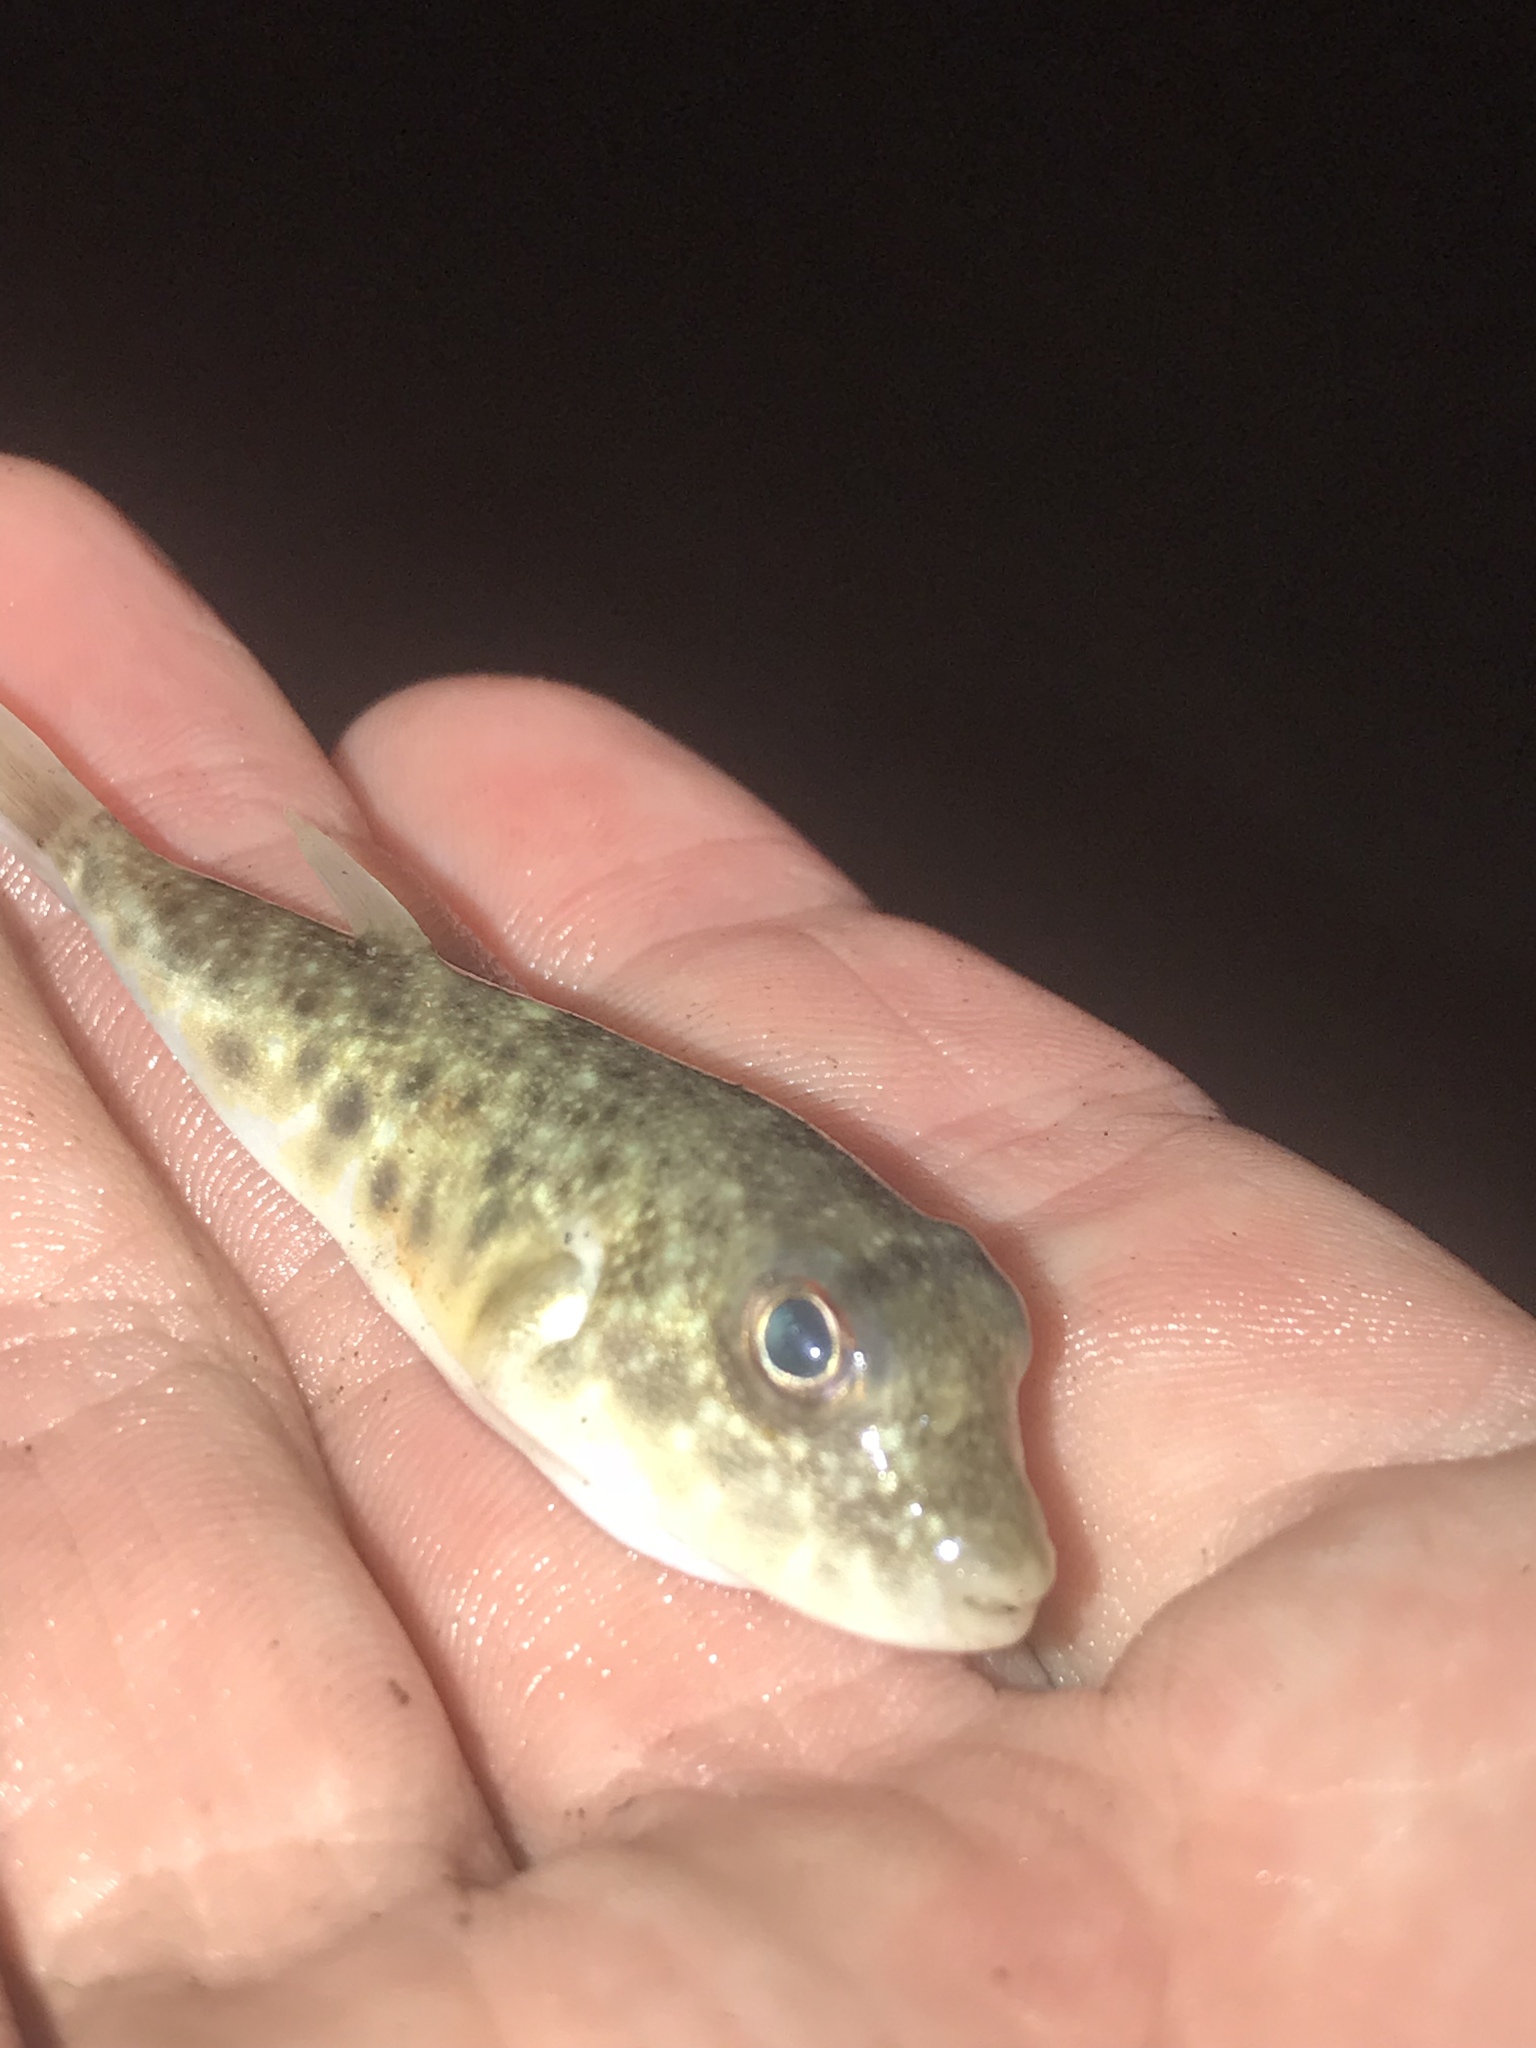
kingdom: Animalia
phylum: Chordata
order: Tetraodontiformes
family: Tetraodontidae
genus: Sphoeroides
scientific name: Sphoeroides parvus
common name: Least puffer
